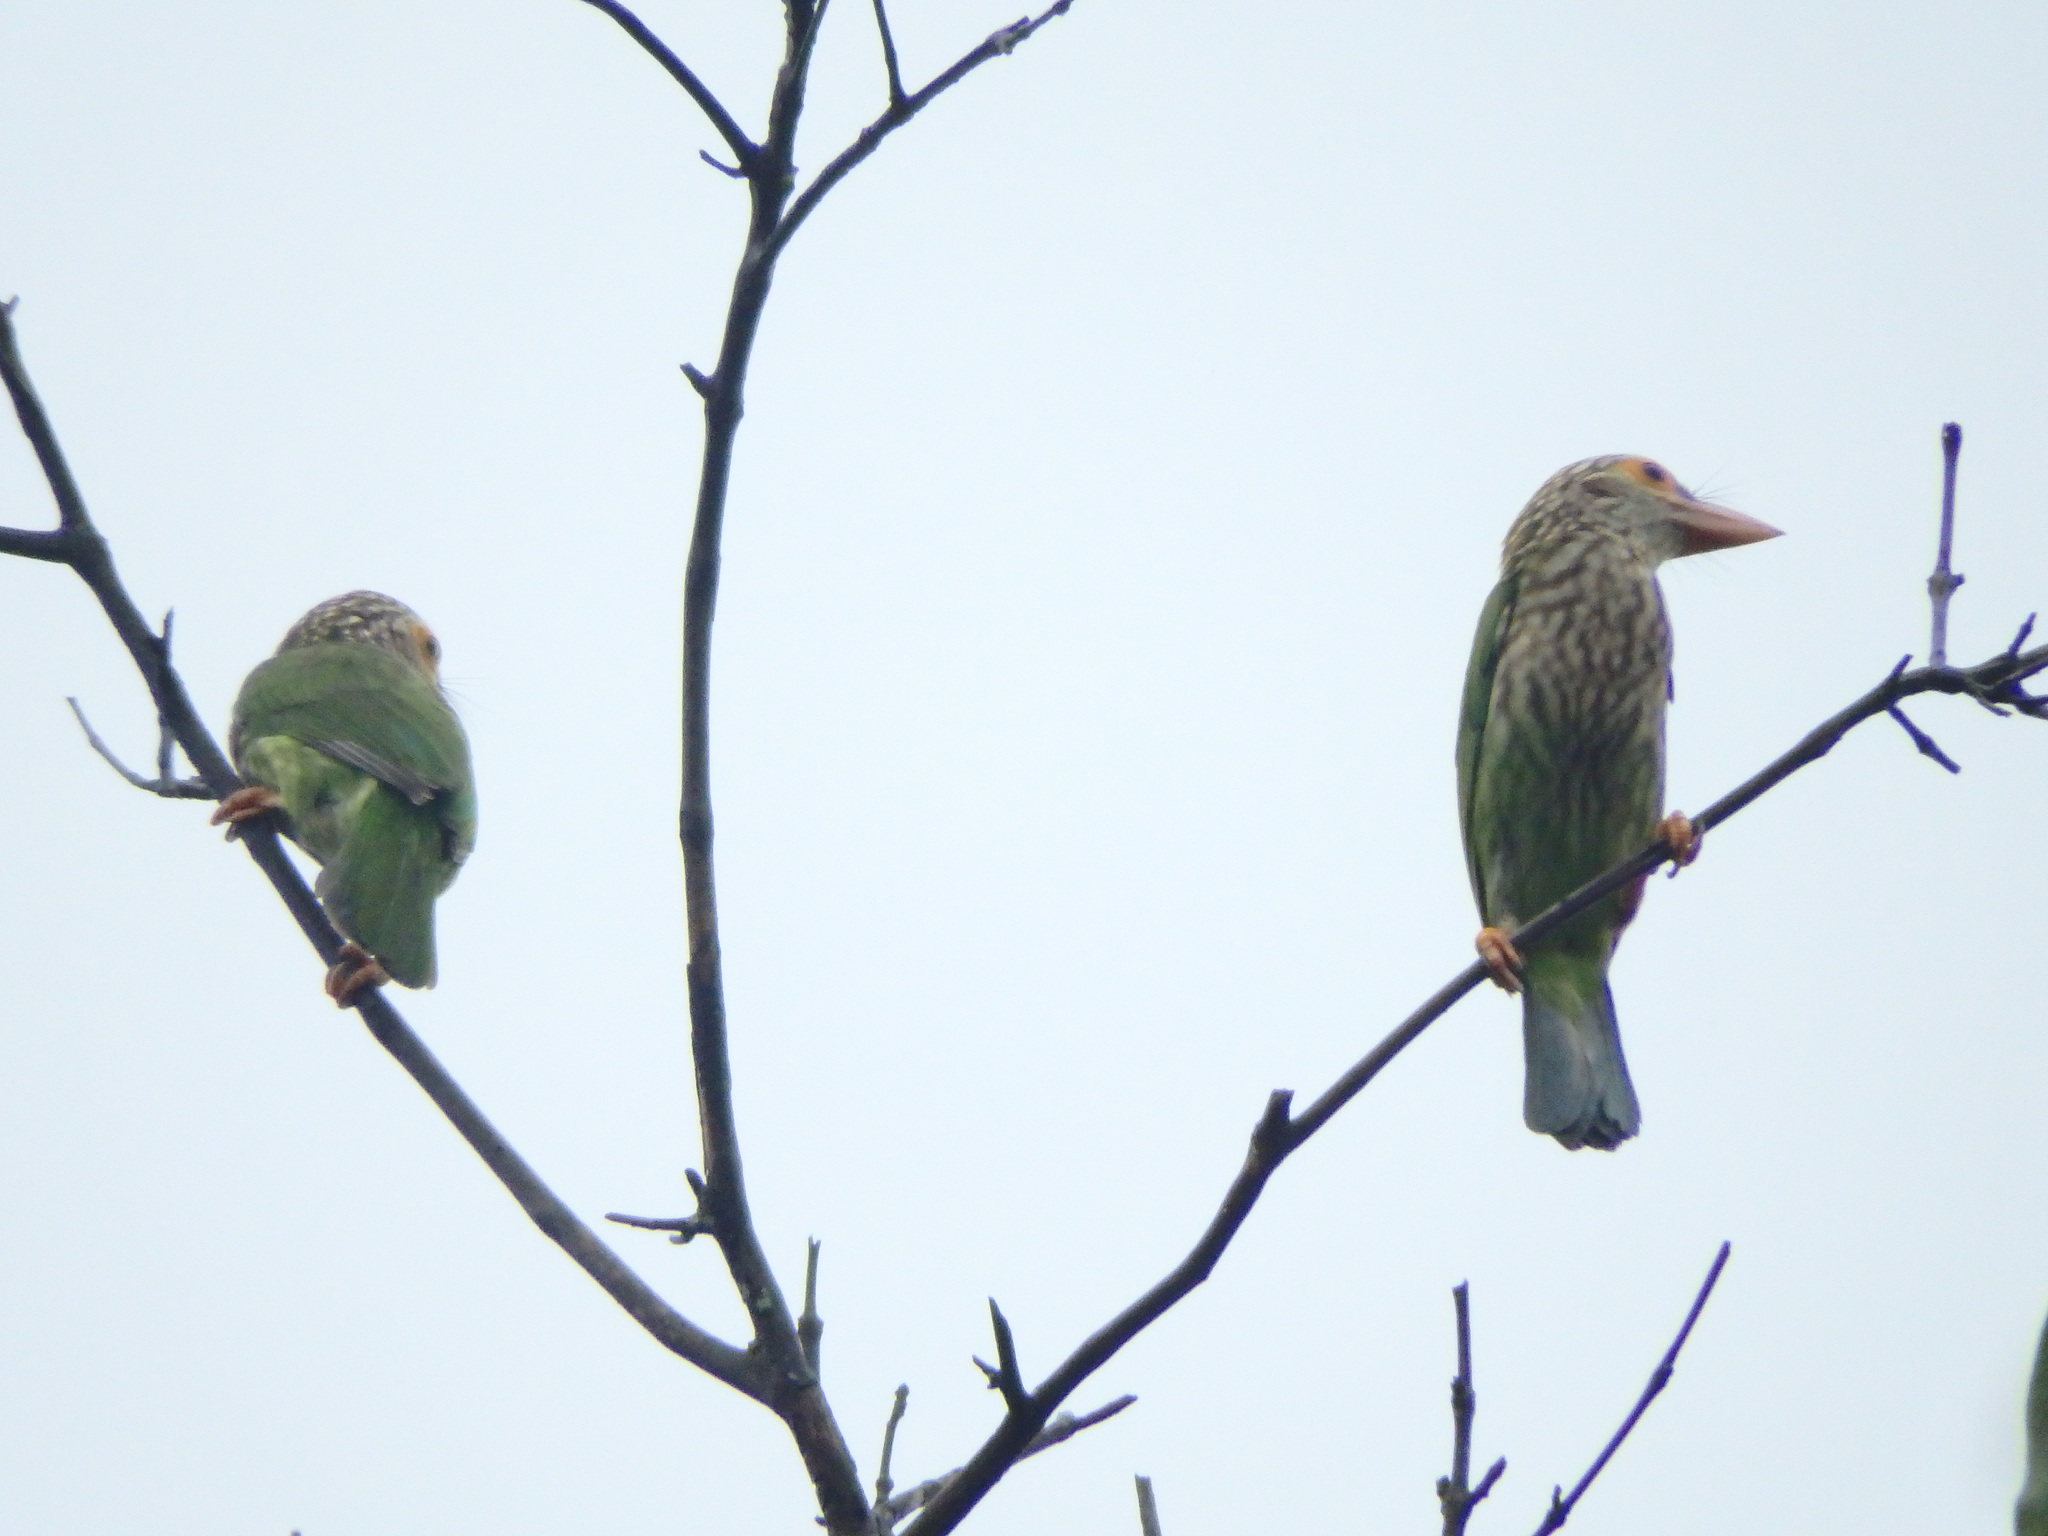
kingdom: Animalia
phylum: Chordata
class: Aves
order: Piciformes
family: Megalaimidae
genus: Psilopogon
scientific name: Psilopogon lineatus
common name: Lineated barbet
